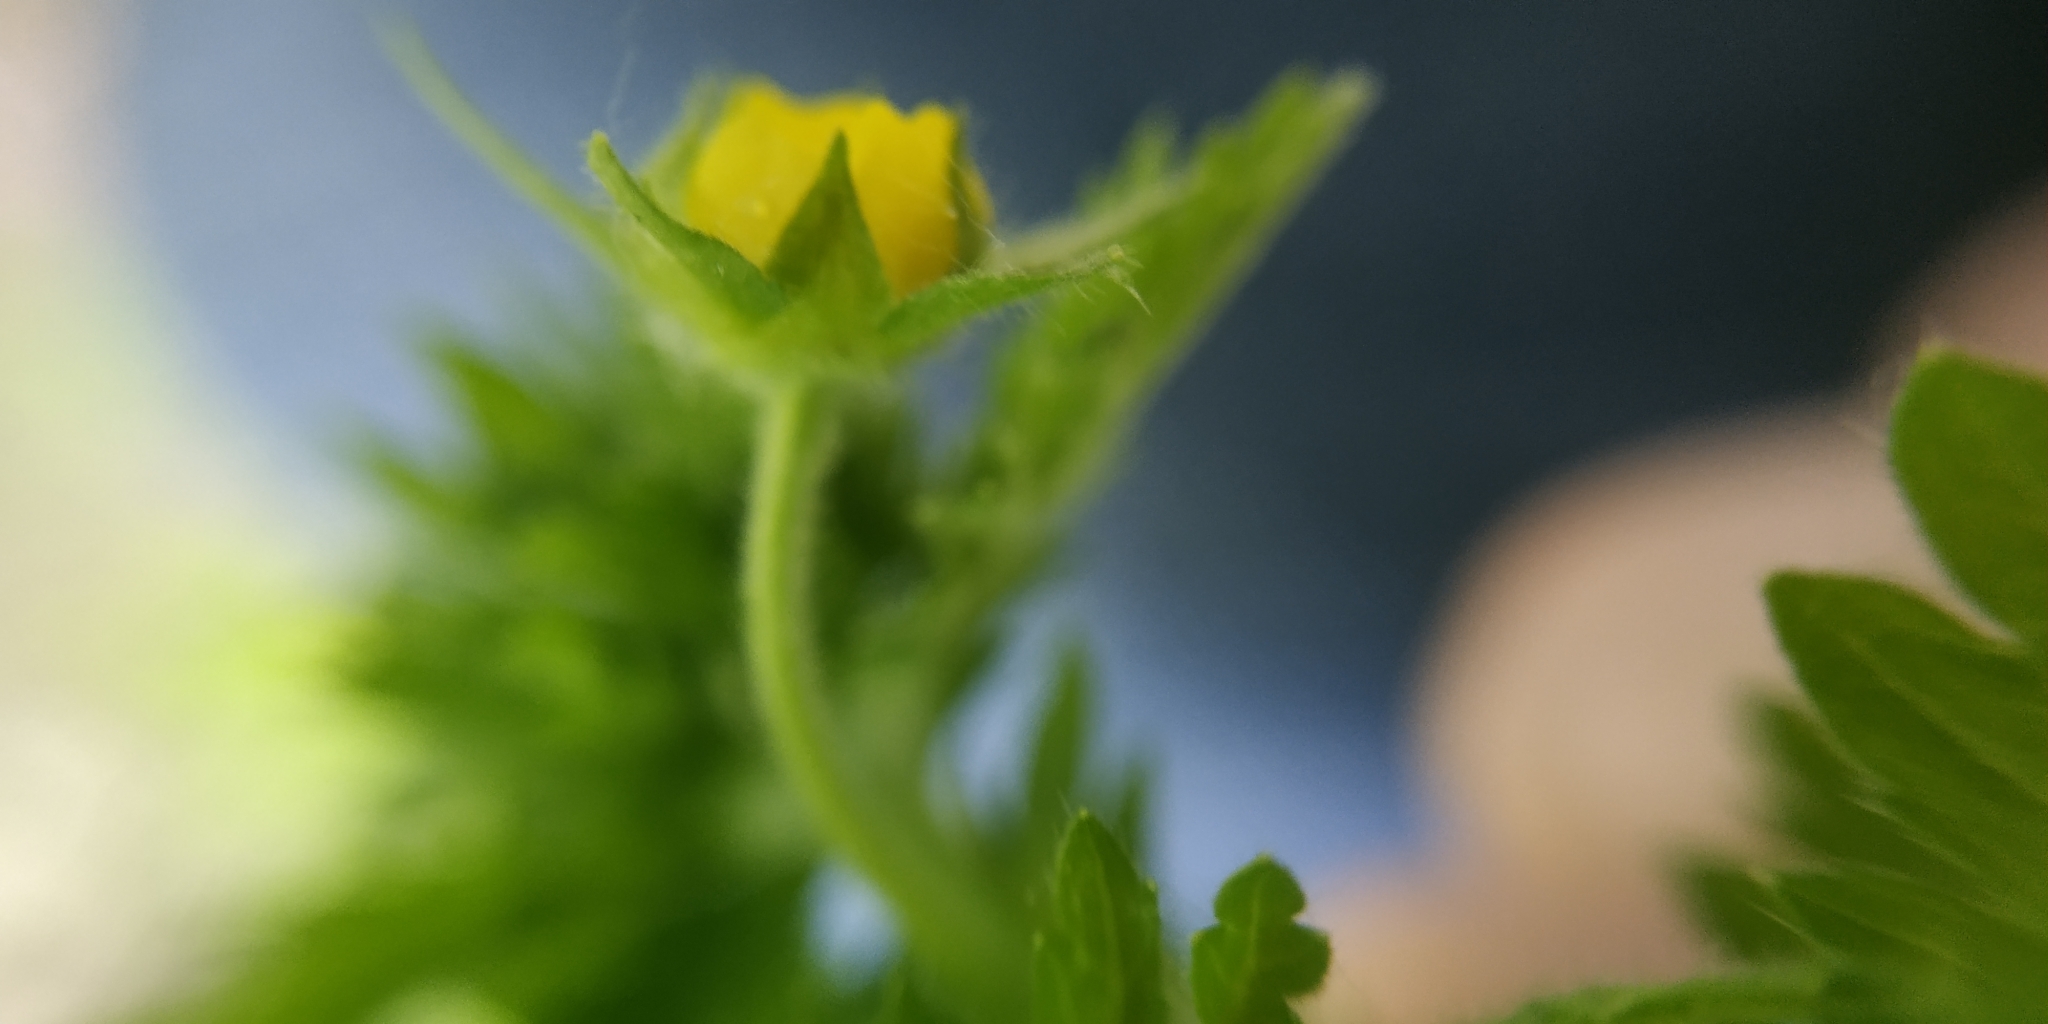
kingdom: Plantae
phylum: Tracheophyta
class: Magnoliopsida
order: Rosales
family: Rosaceae
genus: Potentilla
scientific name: Potentilla supina
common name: Prostrate cinquefoil
